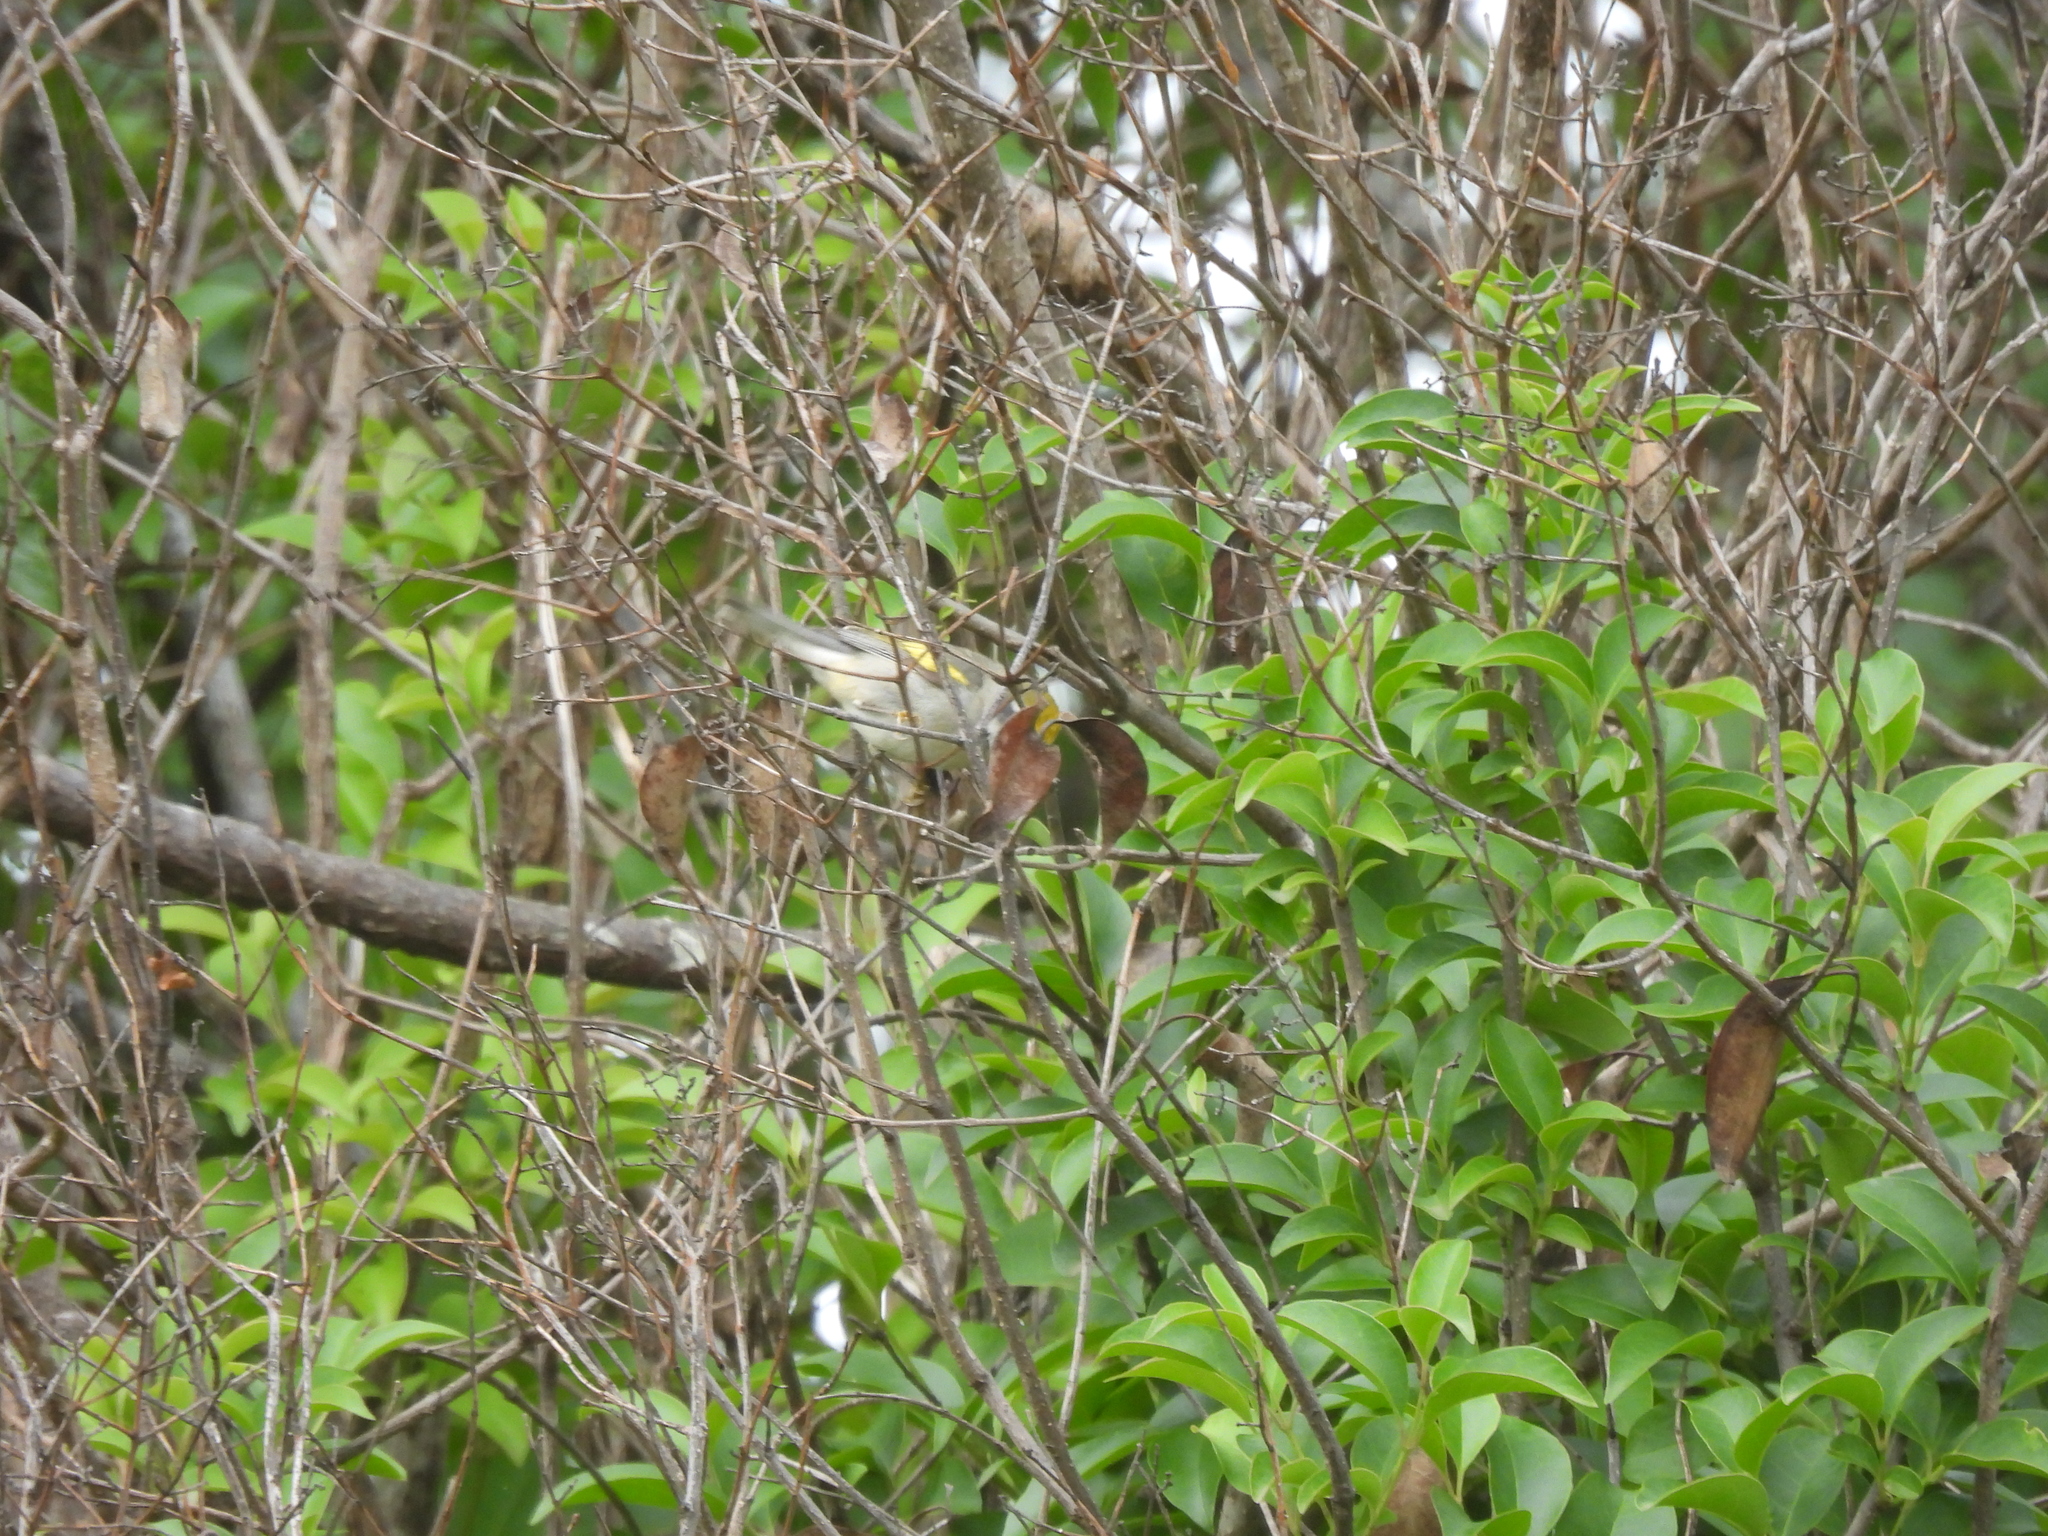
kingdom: Animalia
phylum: Chordata
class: Aves
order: Passeriformes
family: Parulidae
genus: Vermivora
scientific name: Vermivora chrysoptera
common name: Golden-winged warbler
